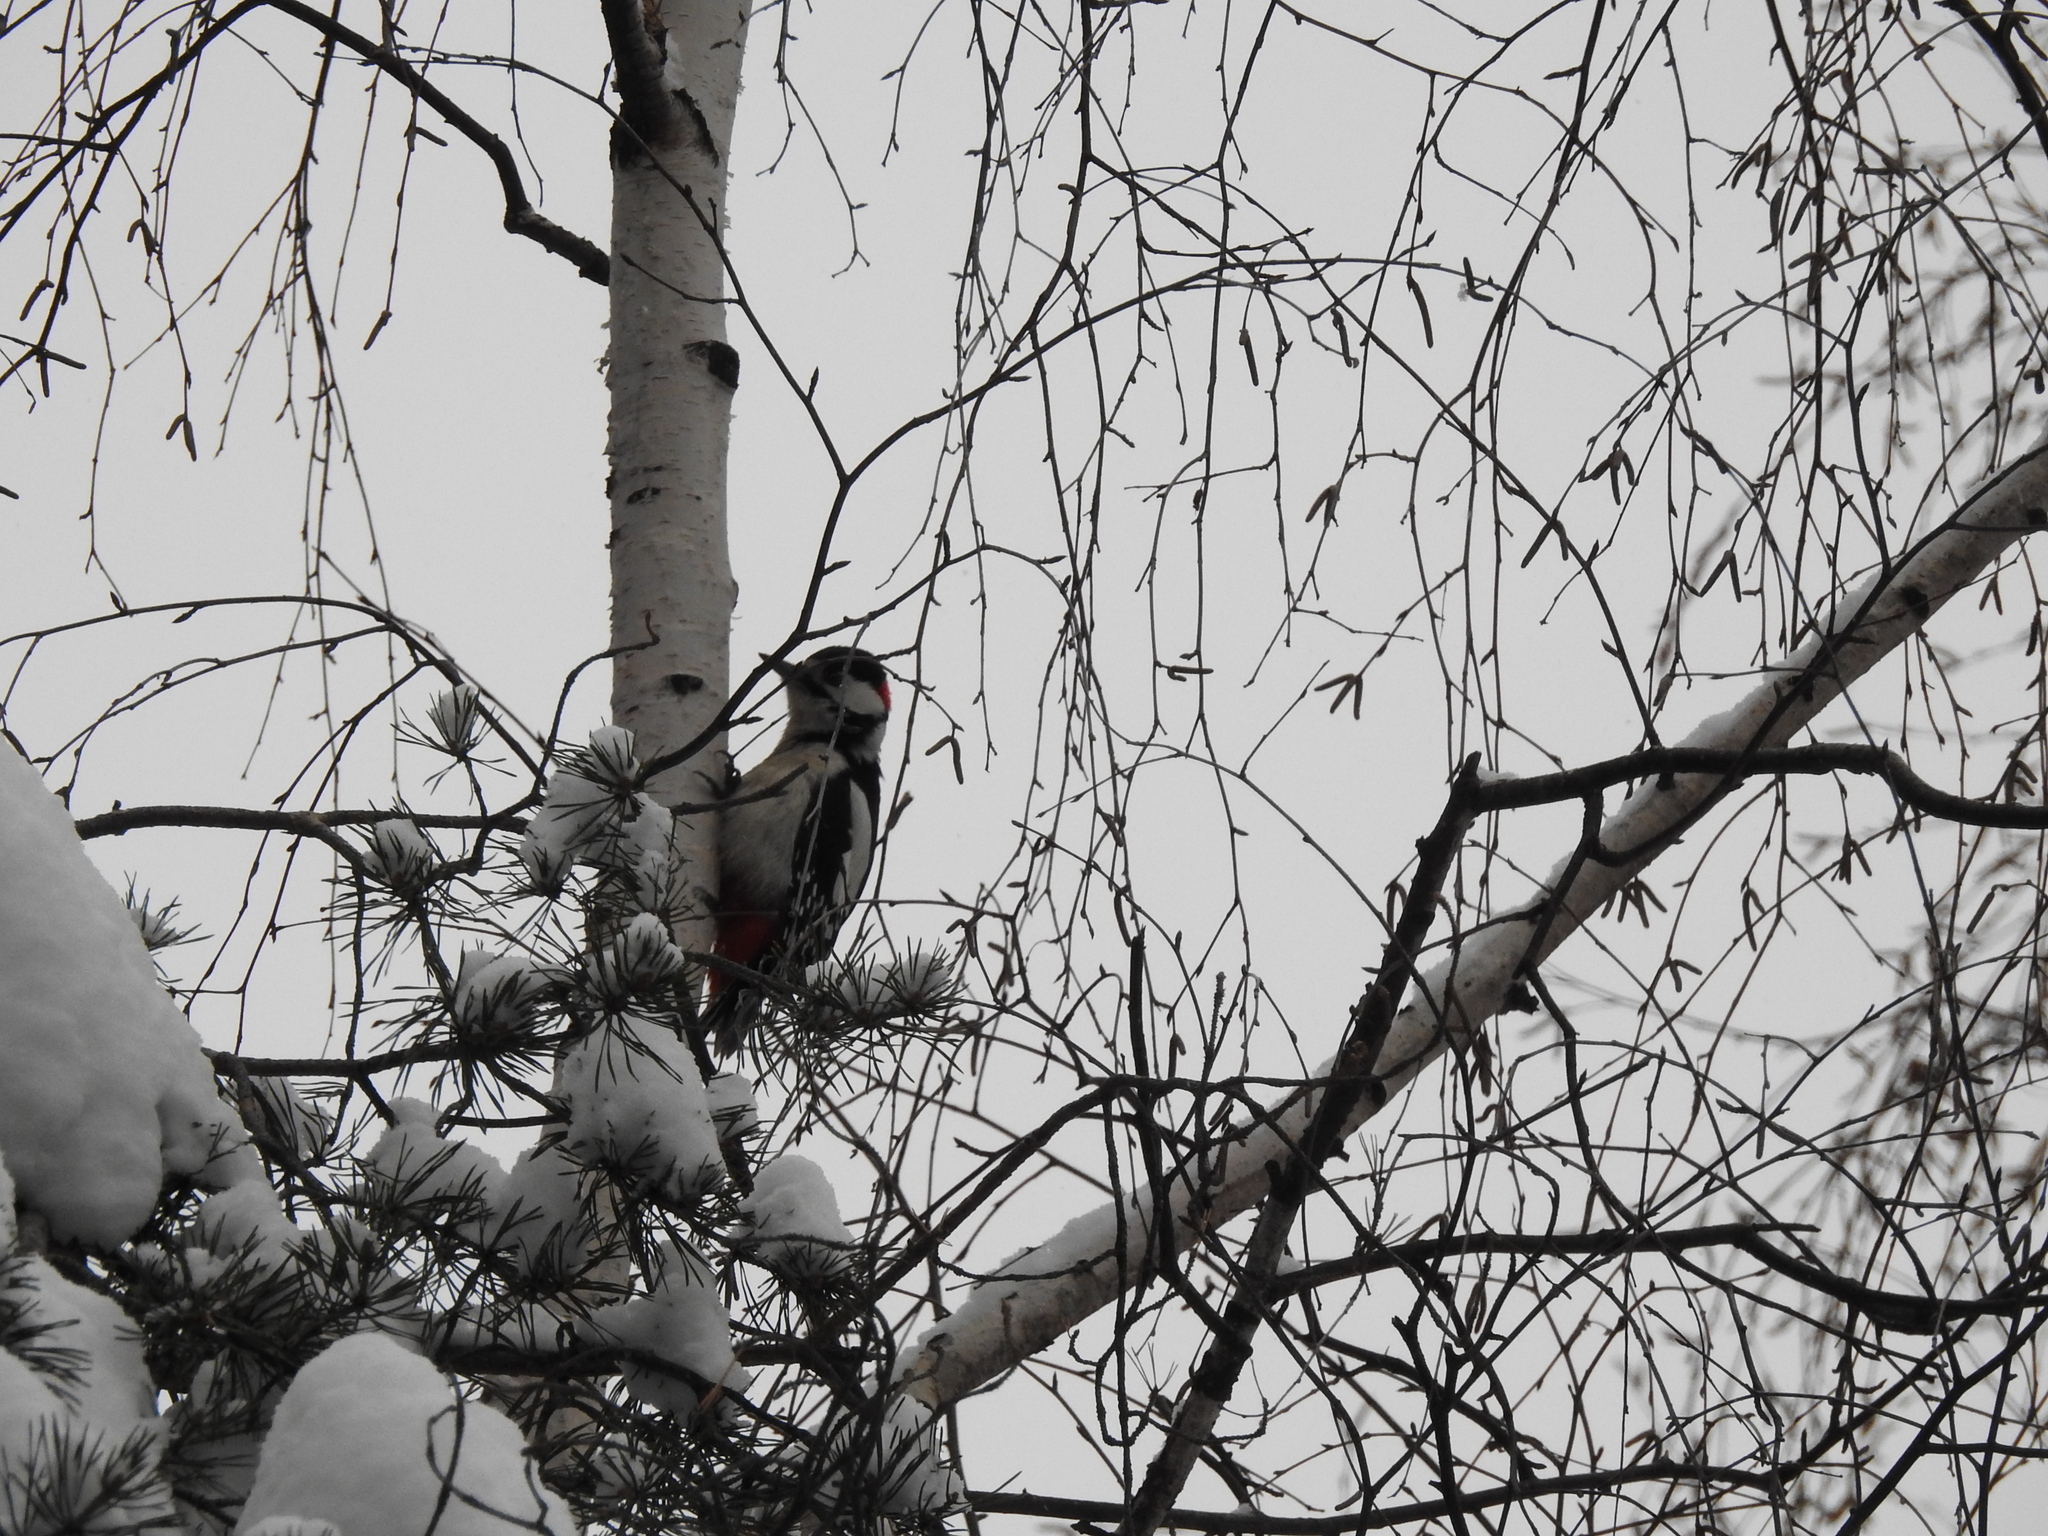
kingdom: Animalia
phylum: Chordata
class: Aves
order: Piciformes
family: Picidae
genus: Dendrocopos
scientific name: Dendrocopos major
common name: Great spotted woodpecker
